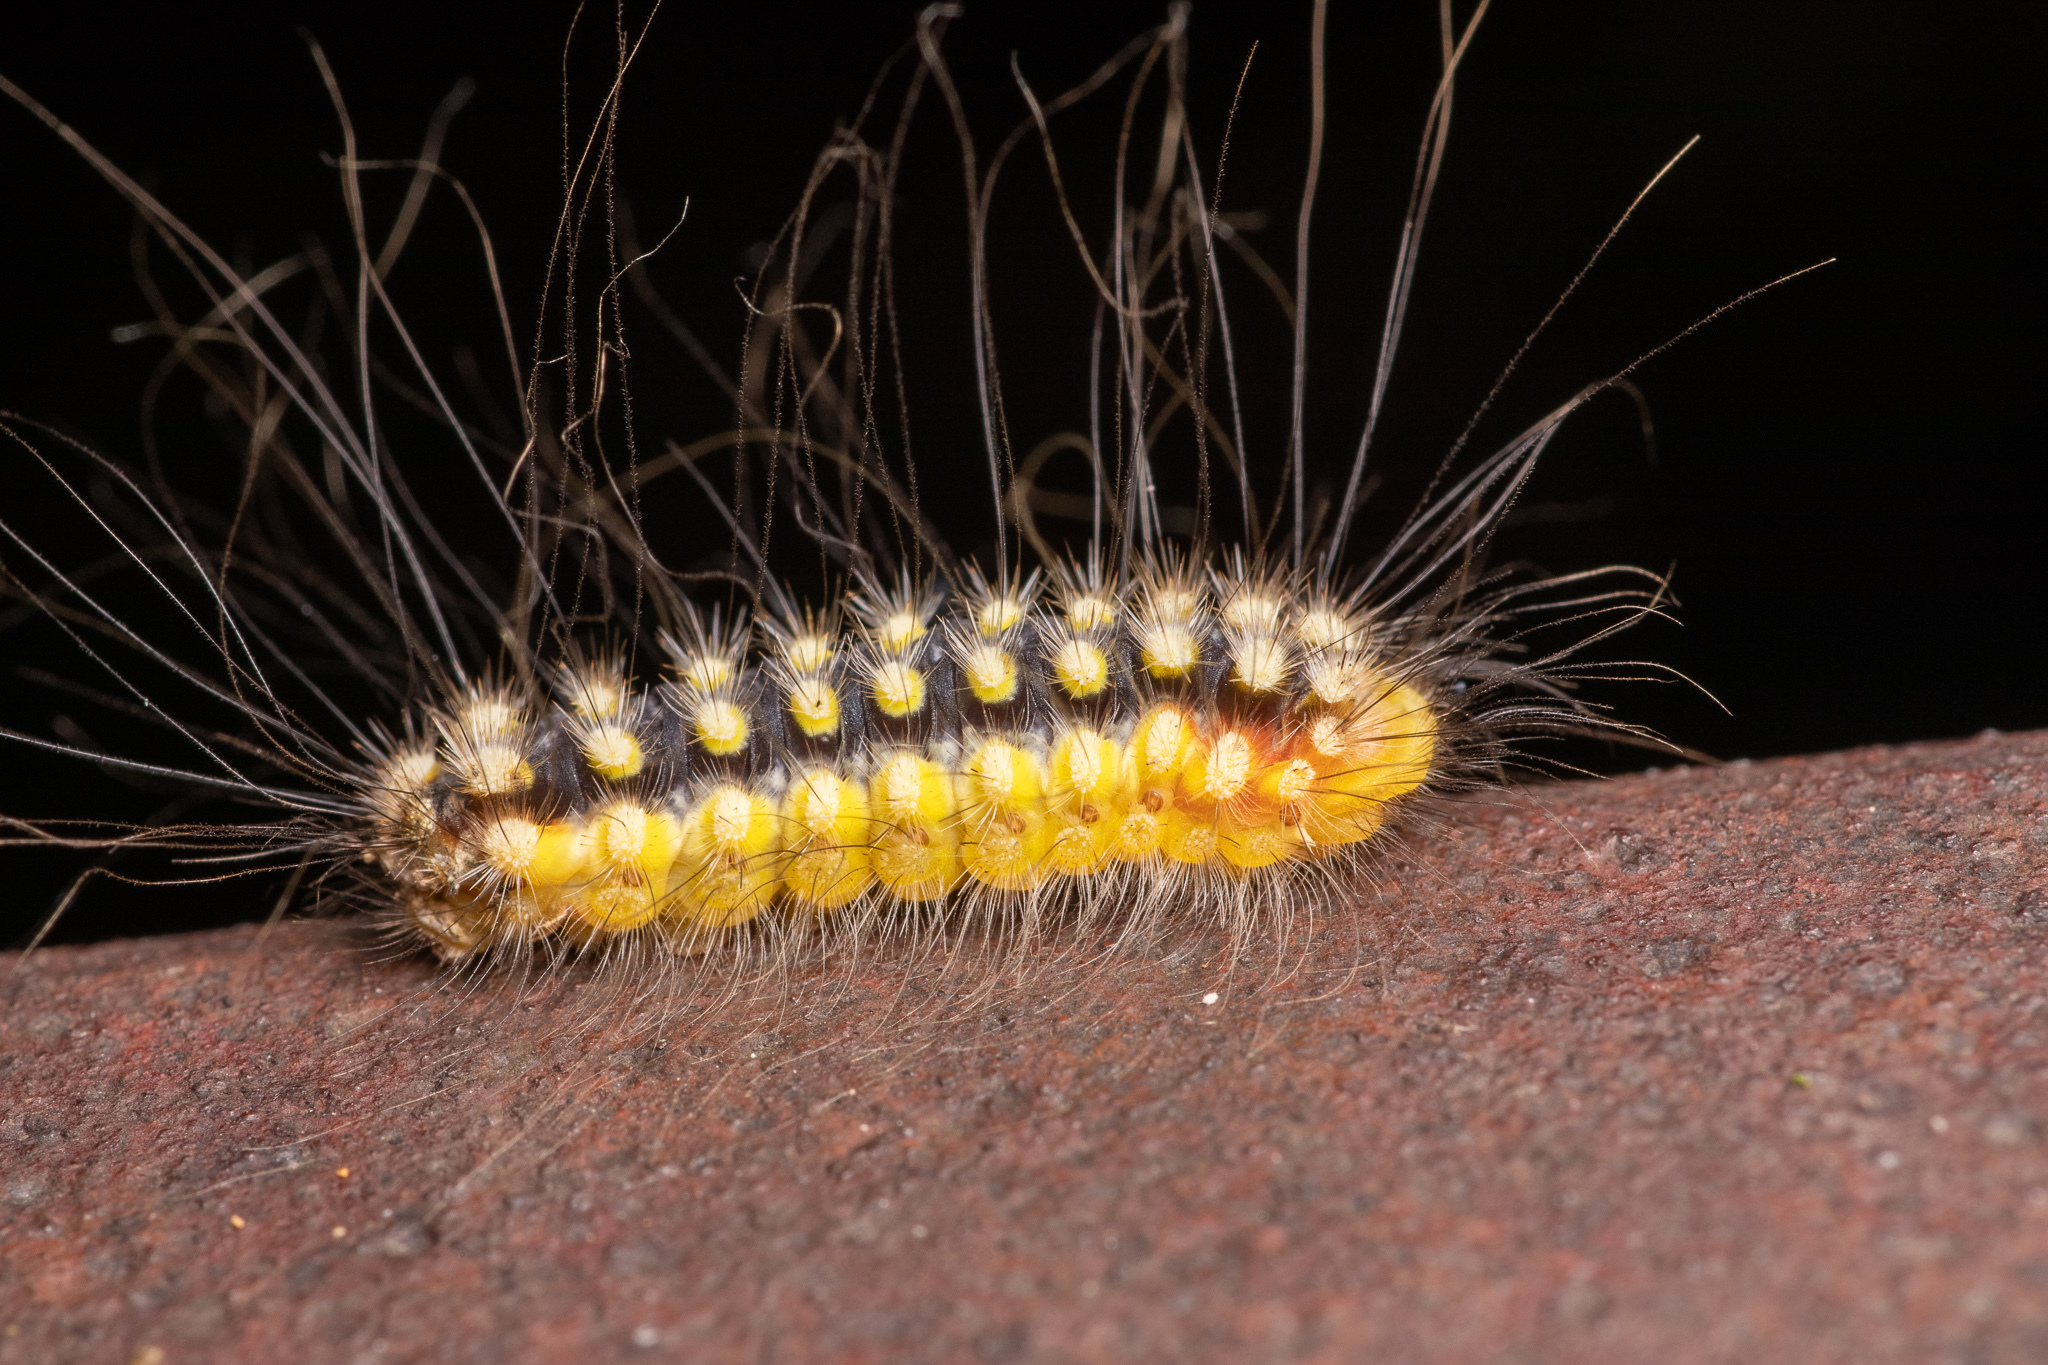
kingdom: Animalia
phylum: Arthropoda
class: Insecta
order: Lepidoptera
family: Megalopygidae
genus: Norape
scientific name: Norape cretata
